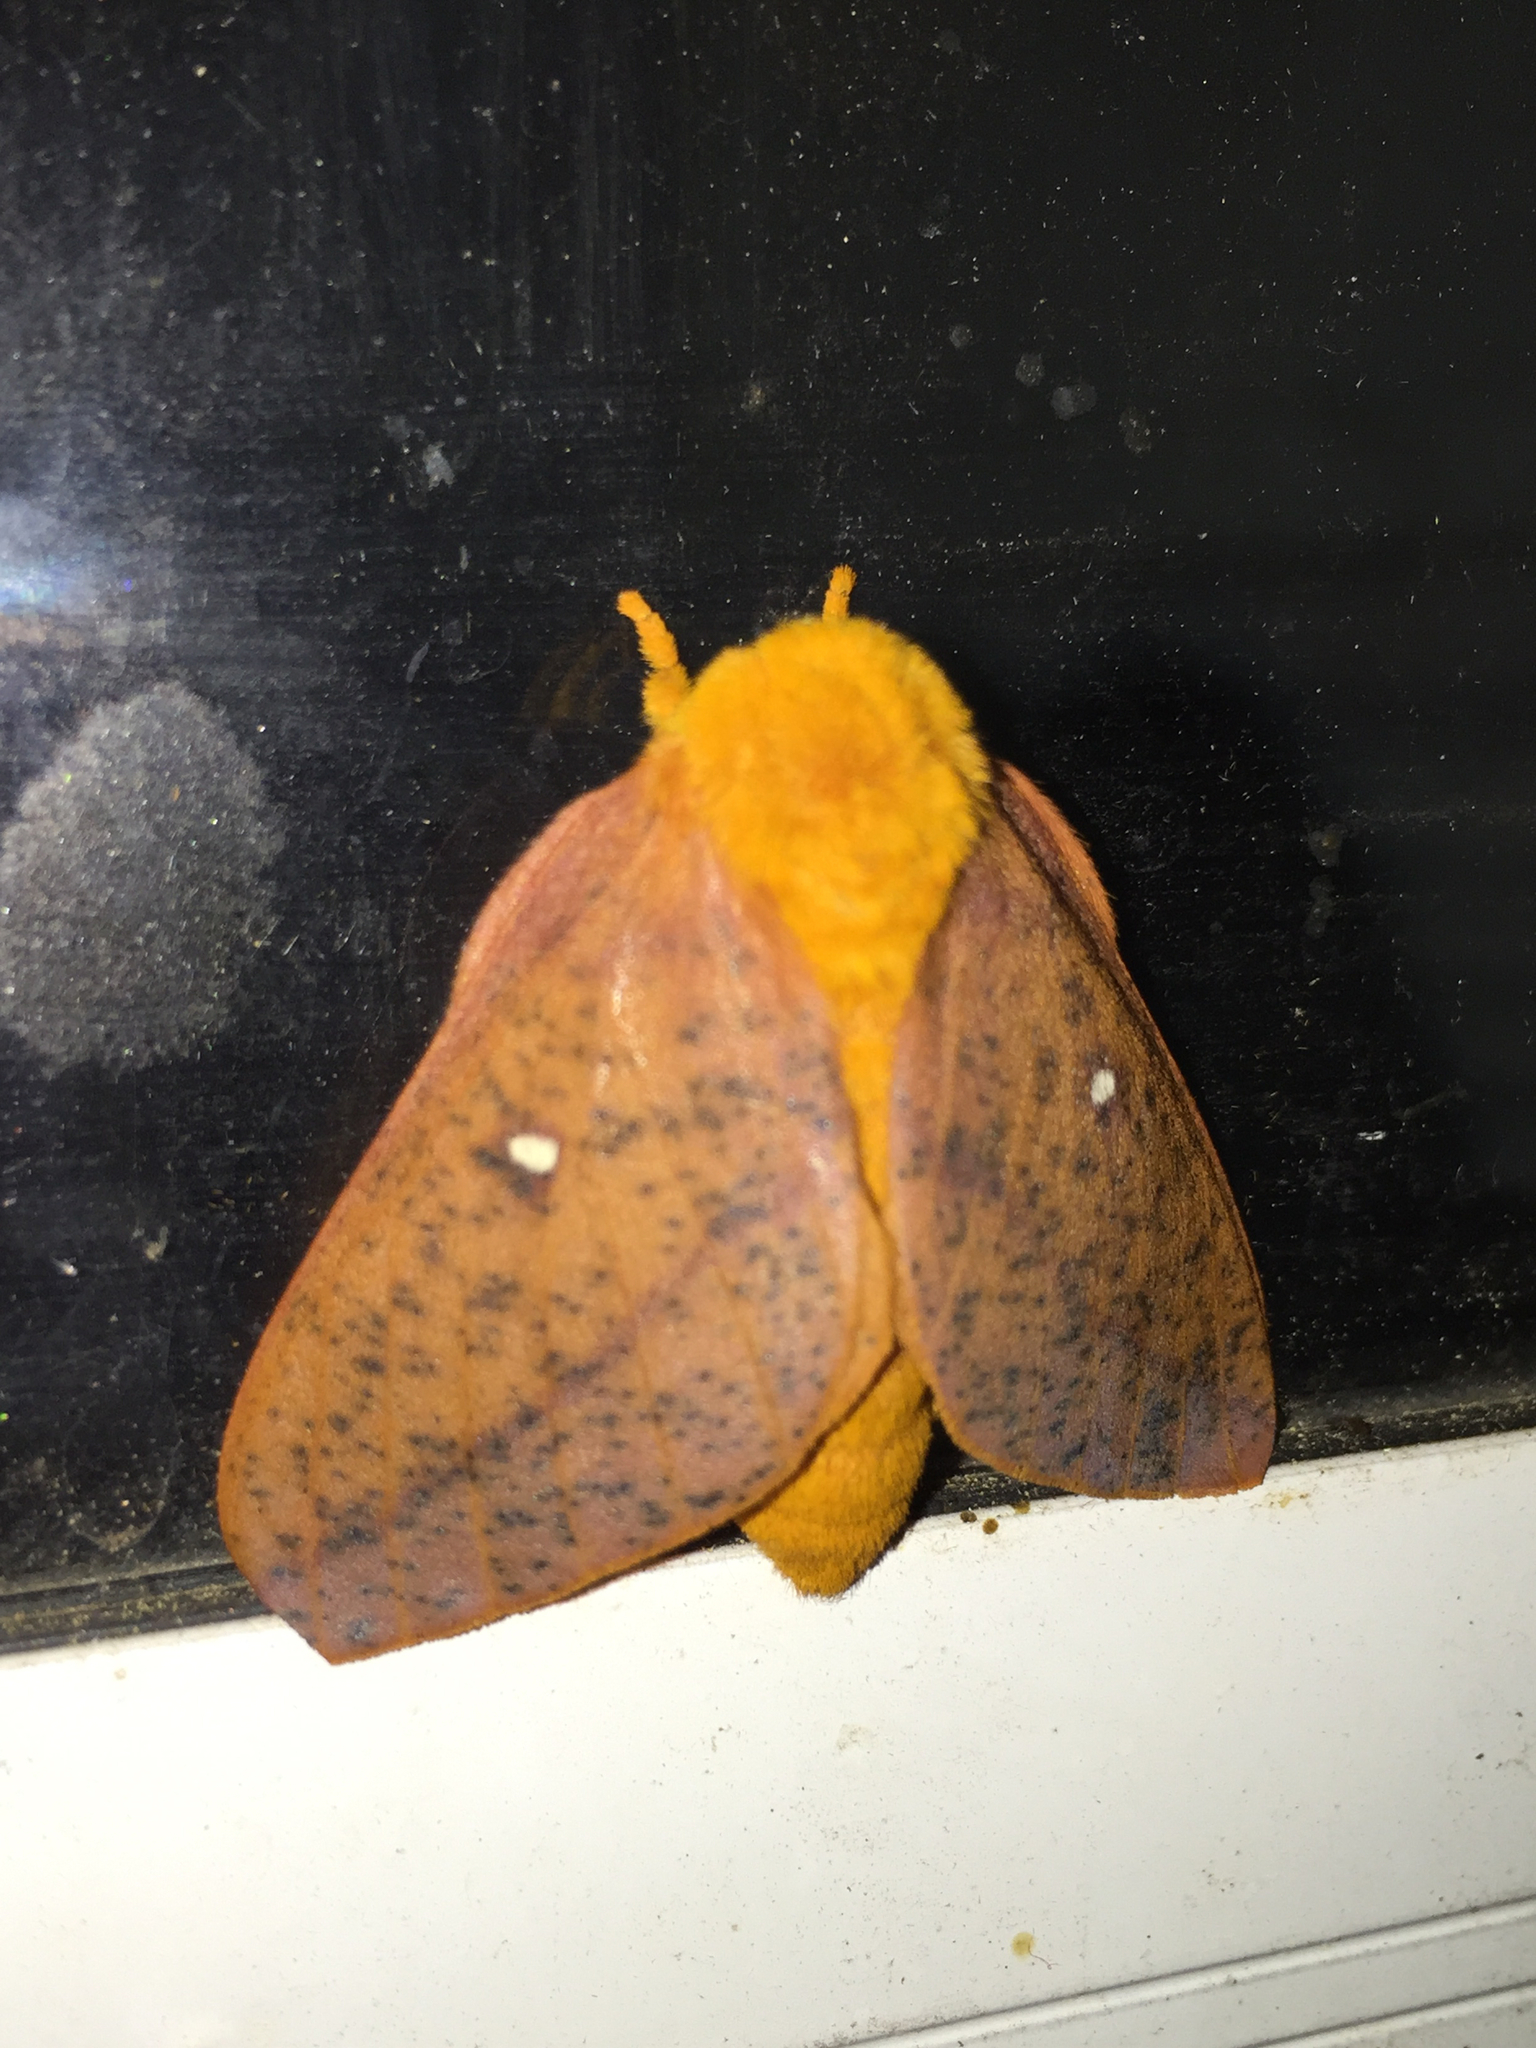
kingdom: Animalia
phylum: Arthropoda
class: Insecta
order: Lepidoptera
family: Saturniidae
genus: Anisota
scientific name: Anisota stigma
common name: Spiny oakworm moth
